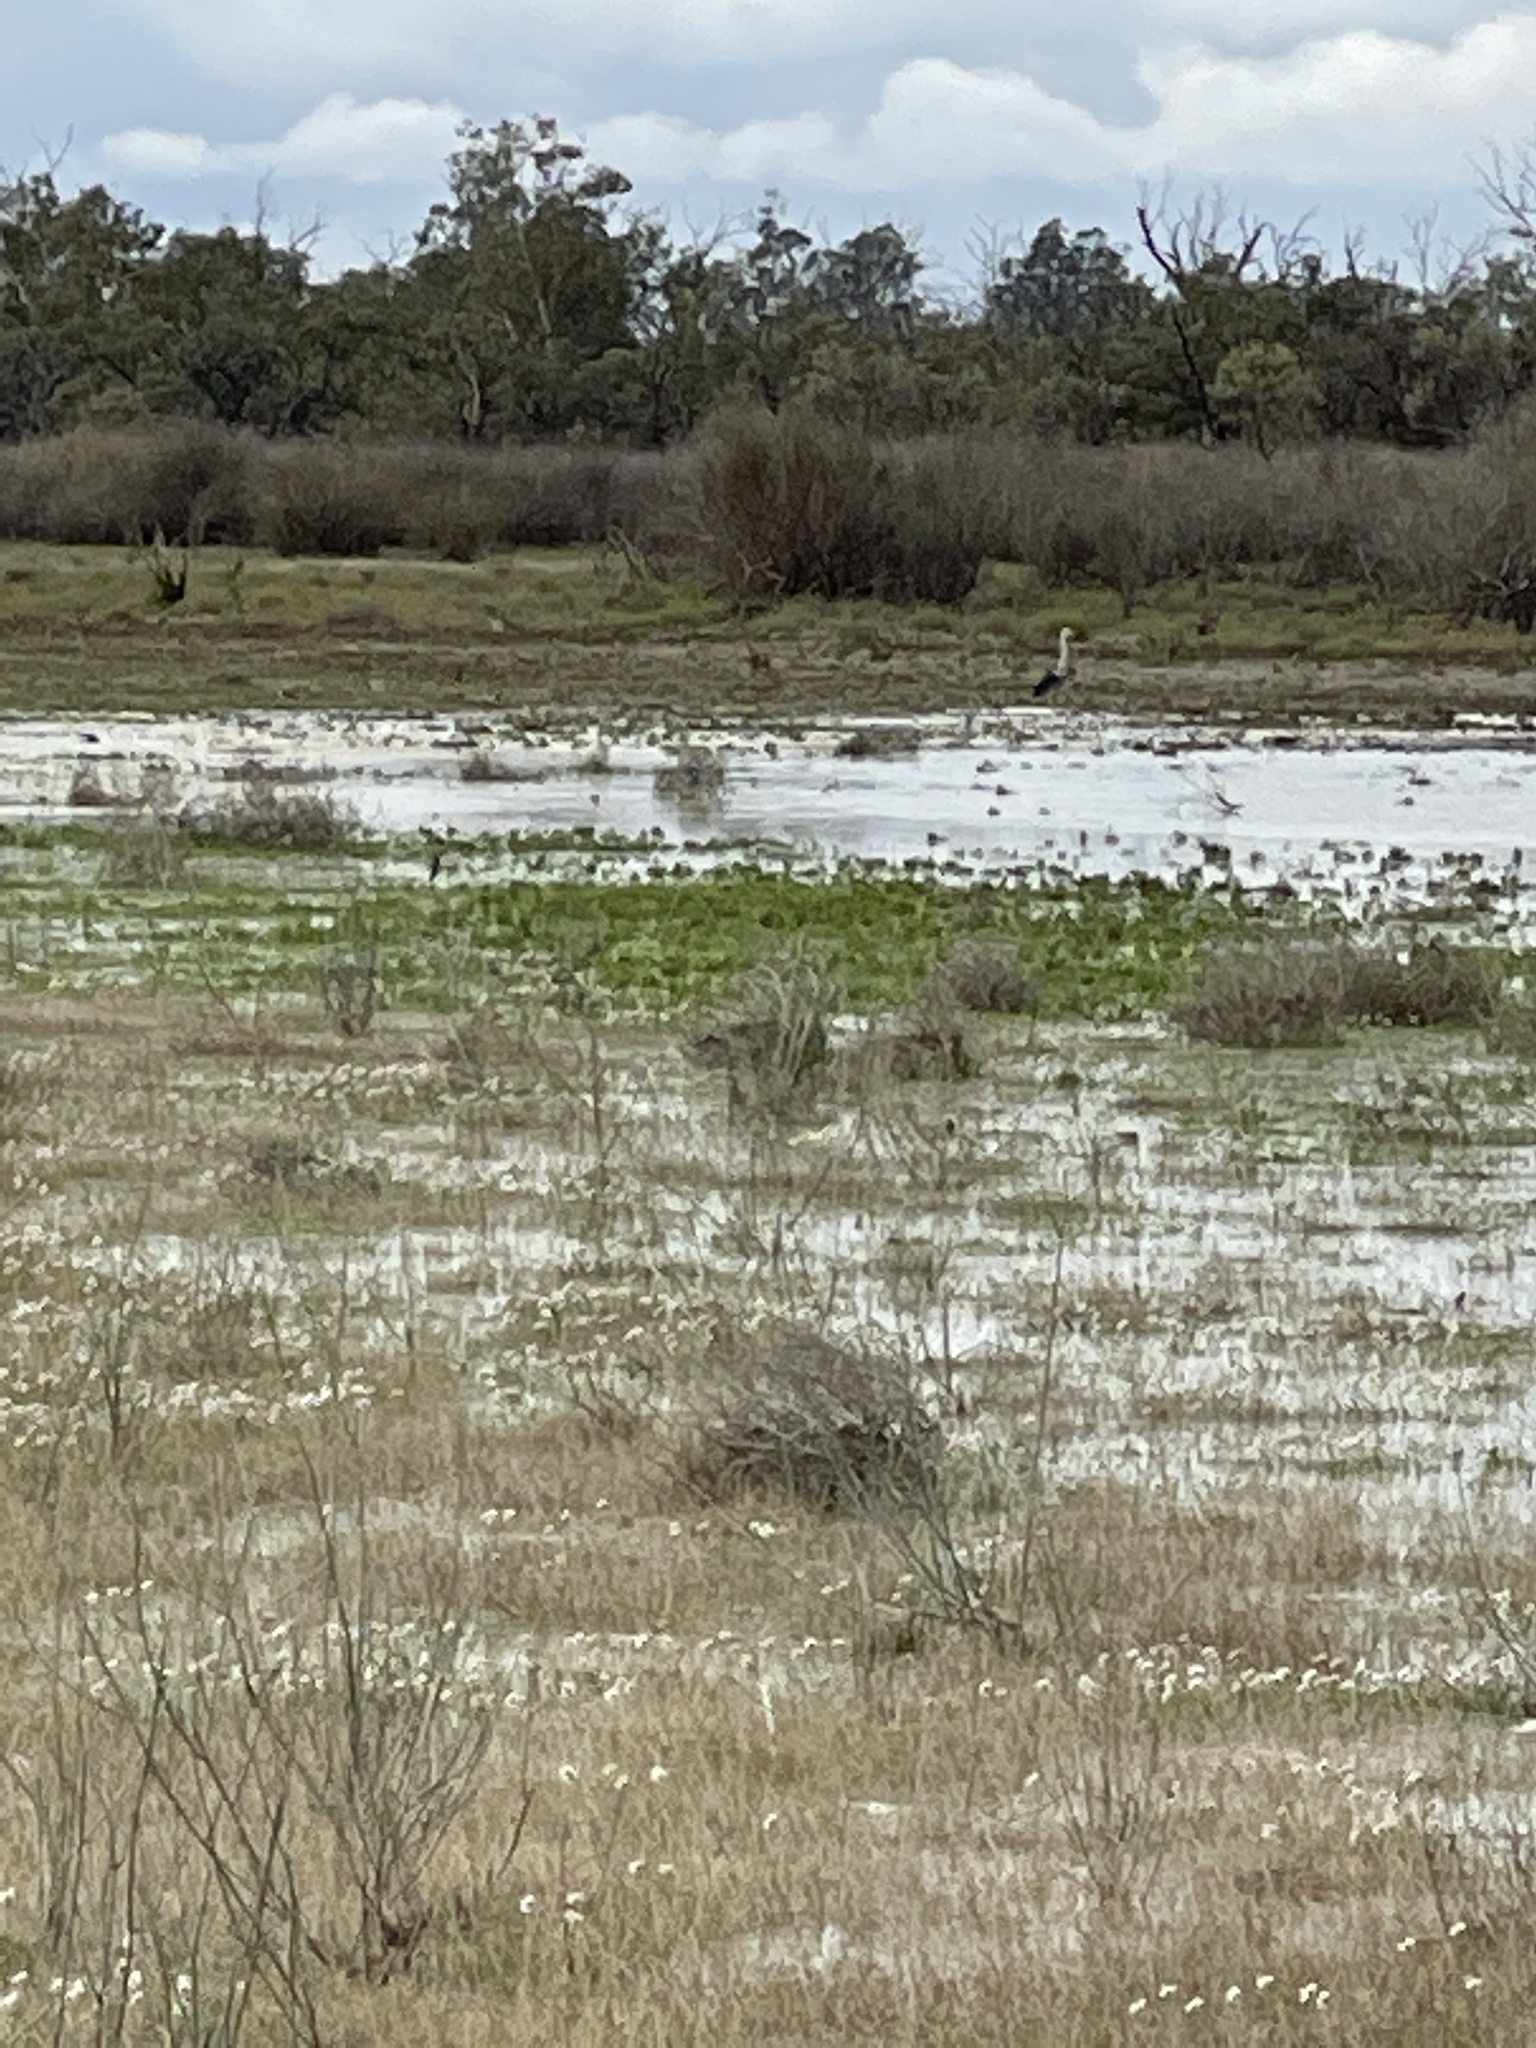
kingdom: Animalia
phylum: Chordata
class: Aves
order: Pelecaniformes
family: Ardeidae
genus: Ardea
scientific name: Ardea pacifica
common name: White-necked heron
